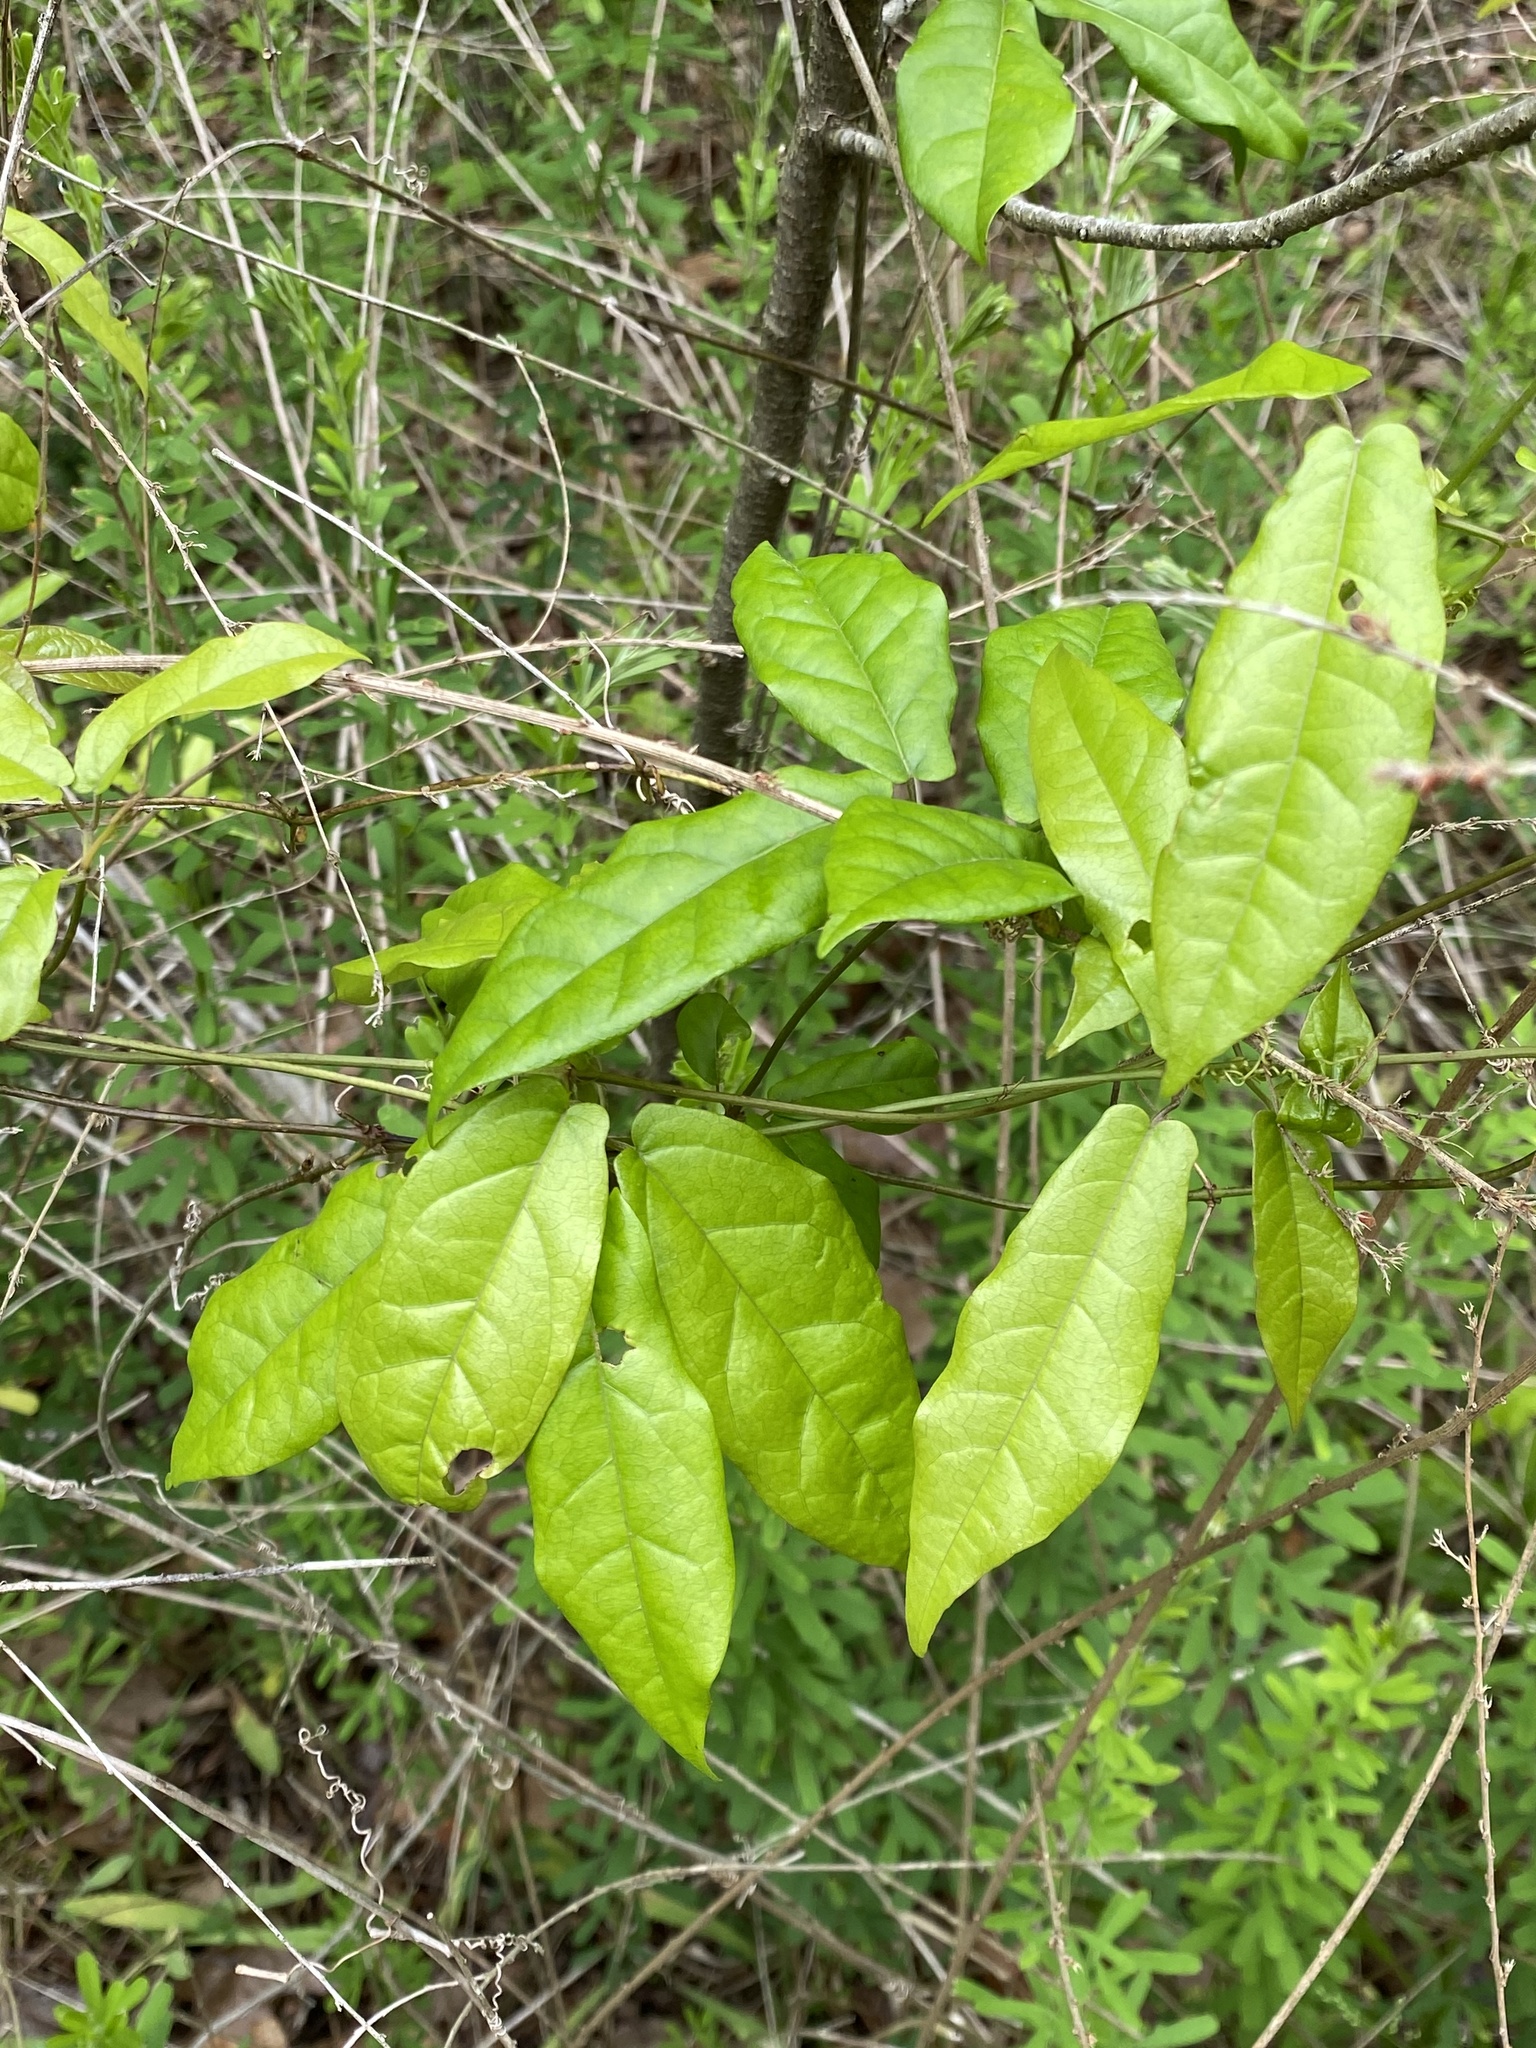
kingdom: Plantae
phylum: Tracheophyta
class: Magnoliopsida
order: Lamiales
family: Bignoniaceae
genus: Bignonia
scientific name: Bignonia capreolata
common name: Crossvine
